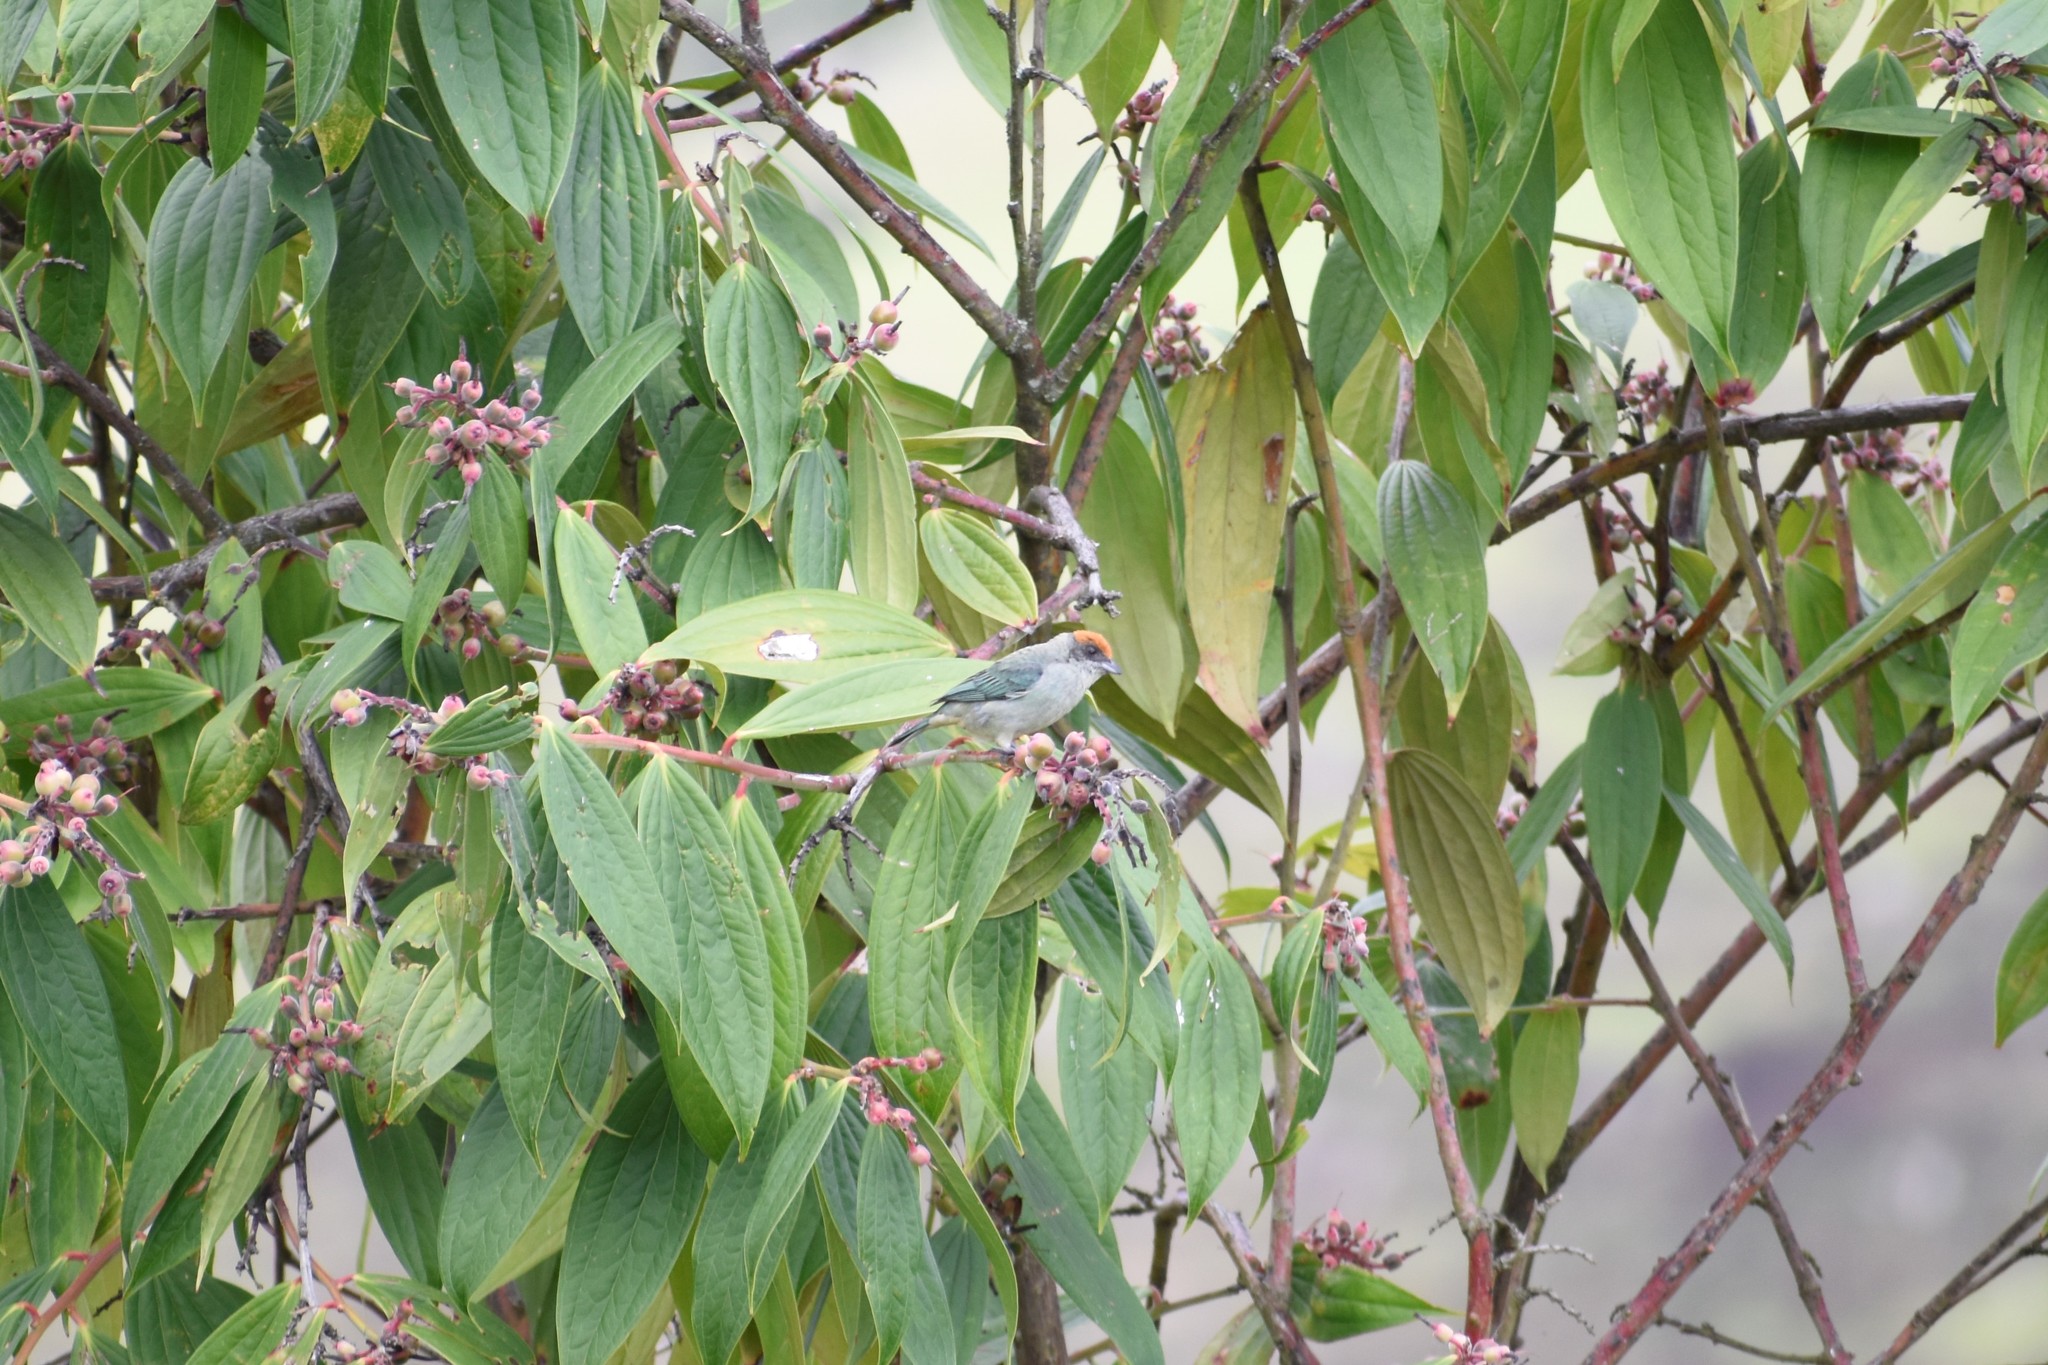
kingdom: Animalia
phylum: Chordata
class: Aves
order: Passeriformes
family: Thraupidae
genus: Stilpnia
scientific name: Stilpnia vitriolina
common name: Scrub tanager
